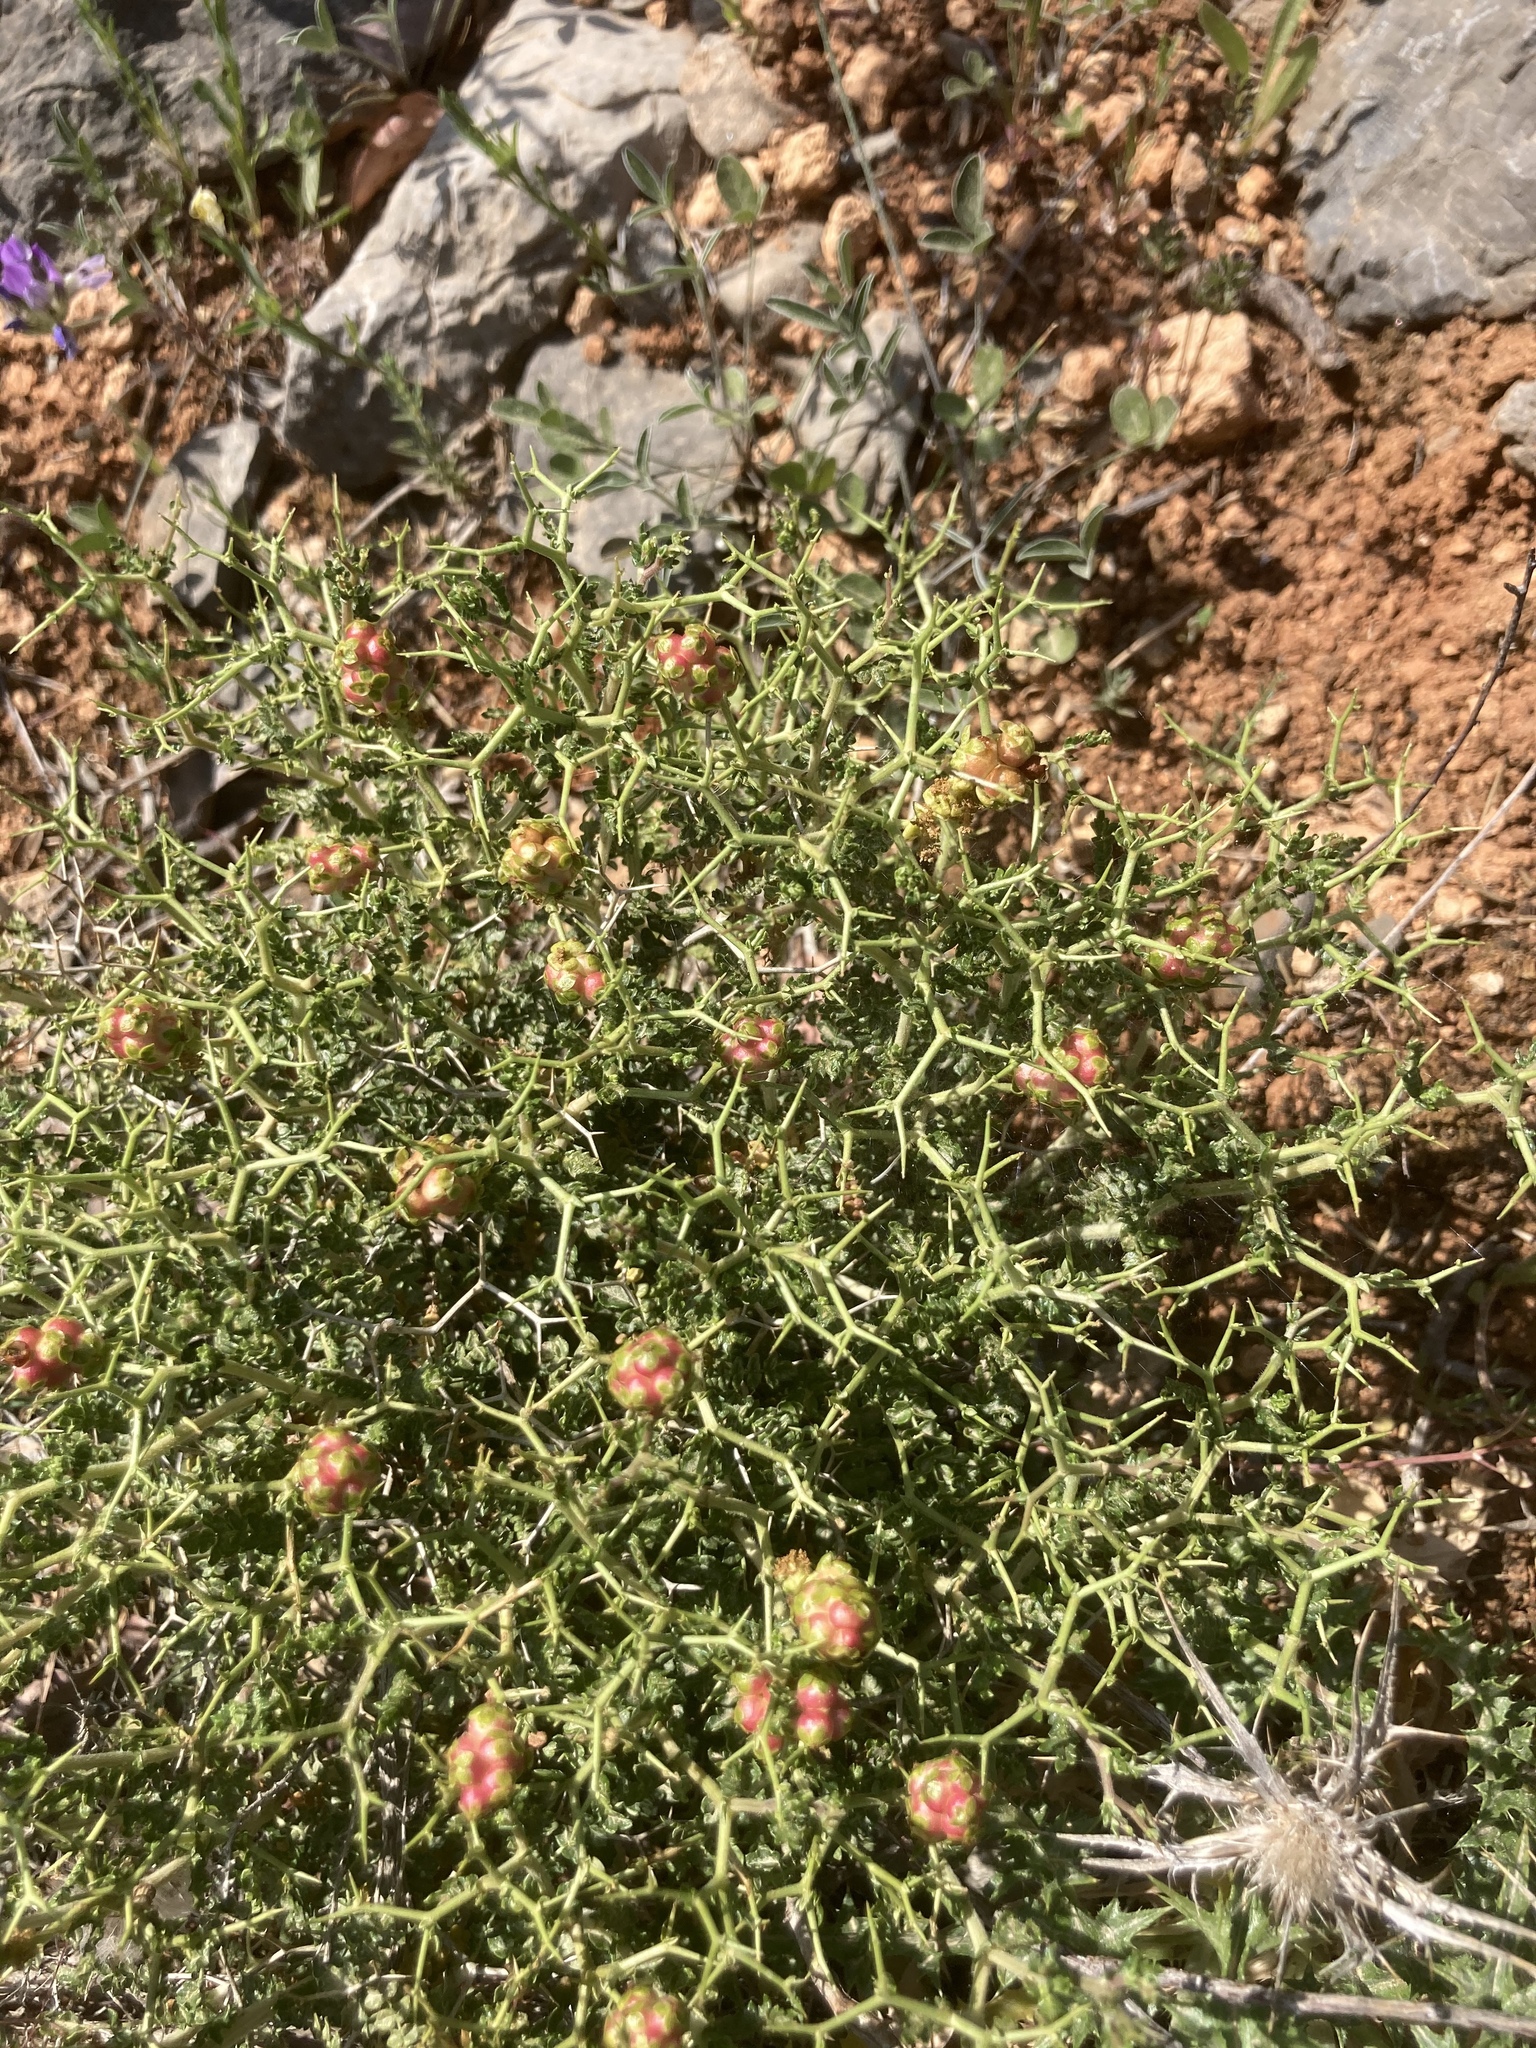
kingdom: Plantae
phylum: Tracheophyta
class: Magnoliopsida
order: Rosales
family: Rosaceae
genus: Sarcopoterium
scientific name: Sarcopoterium spinosum
